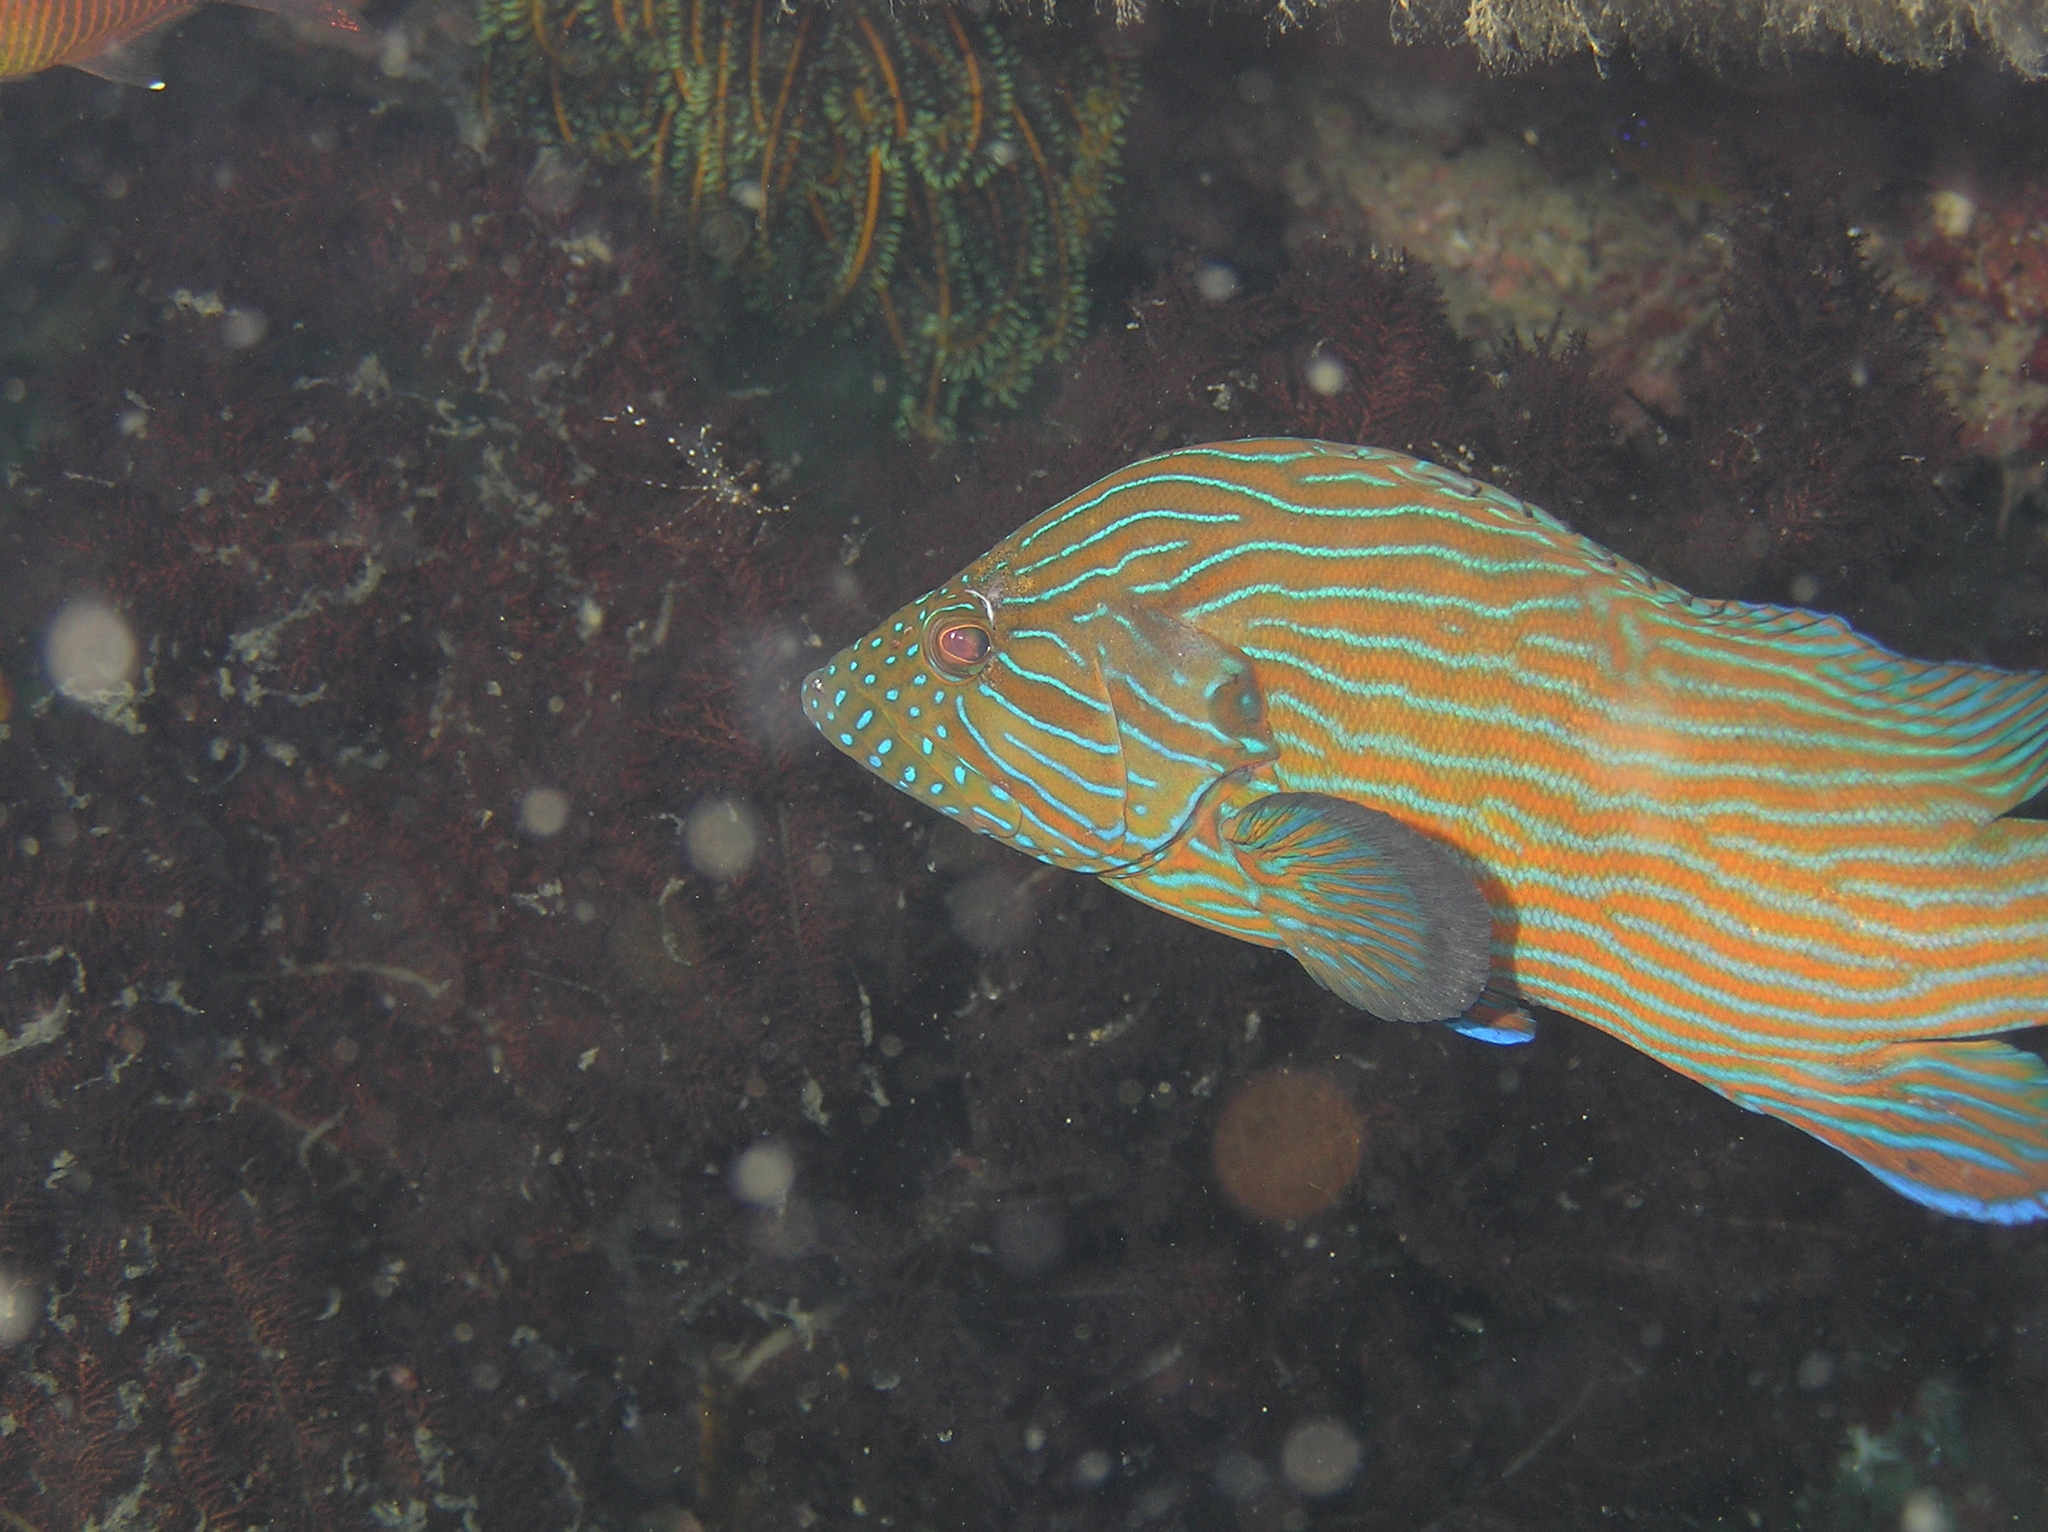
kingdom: Animalia
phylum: Chordata
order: Perciformes
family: Serranidae
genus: Cephalopholis
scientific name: Cephalopholis formosa
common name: Bluelined hind
